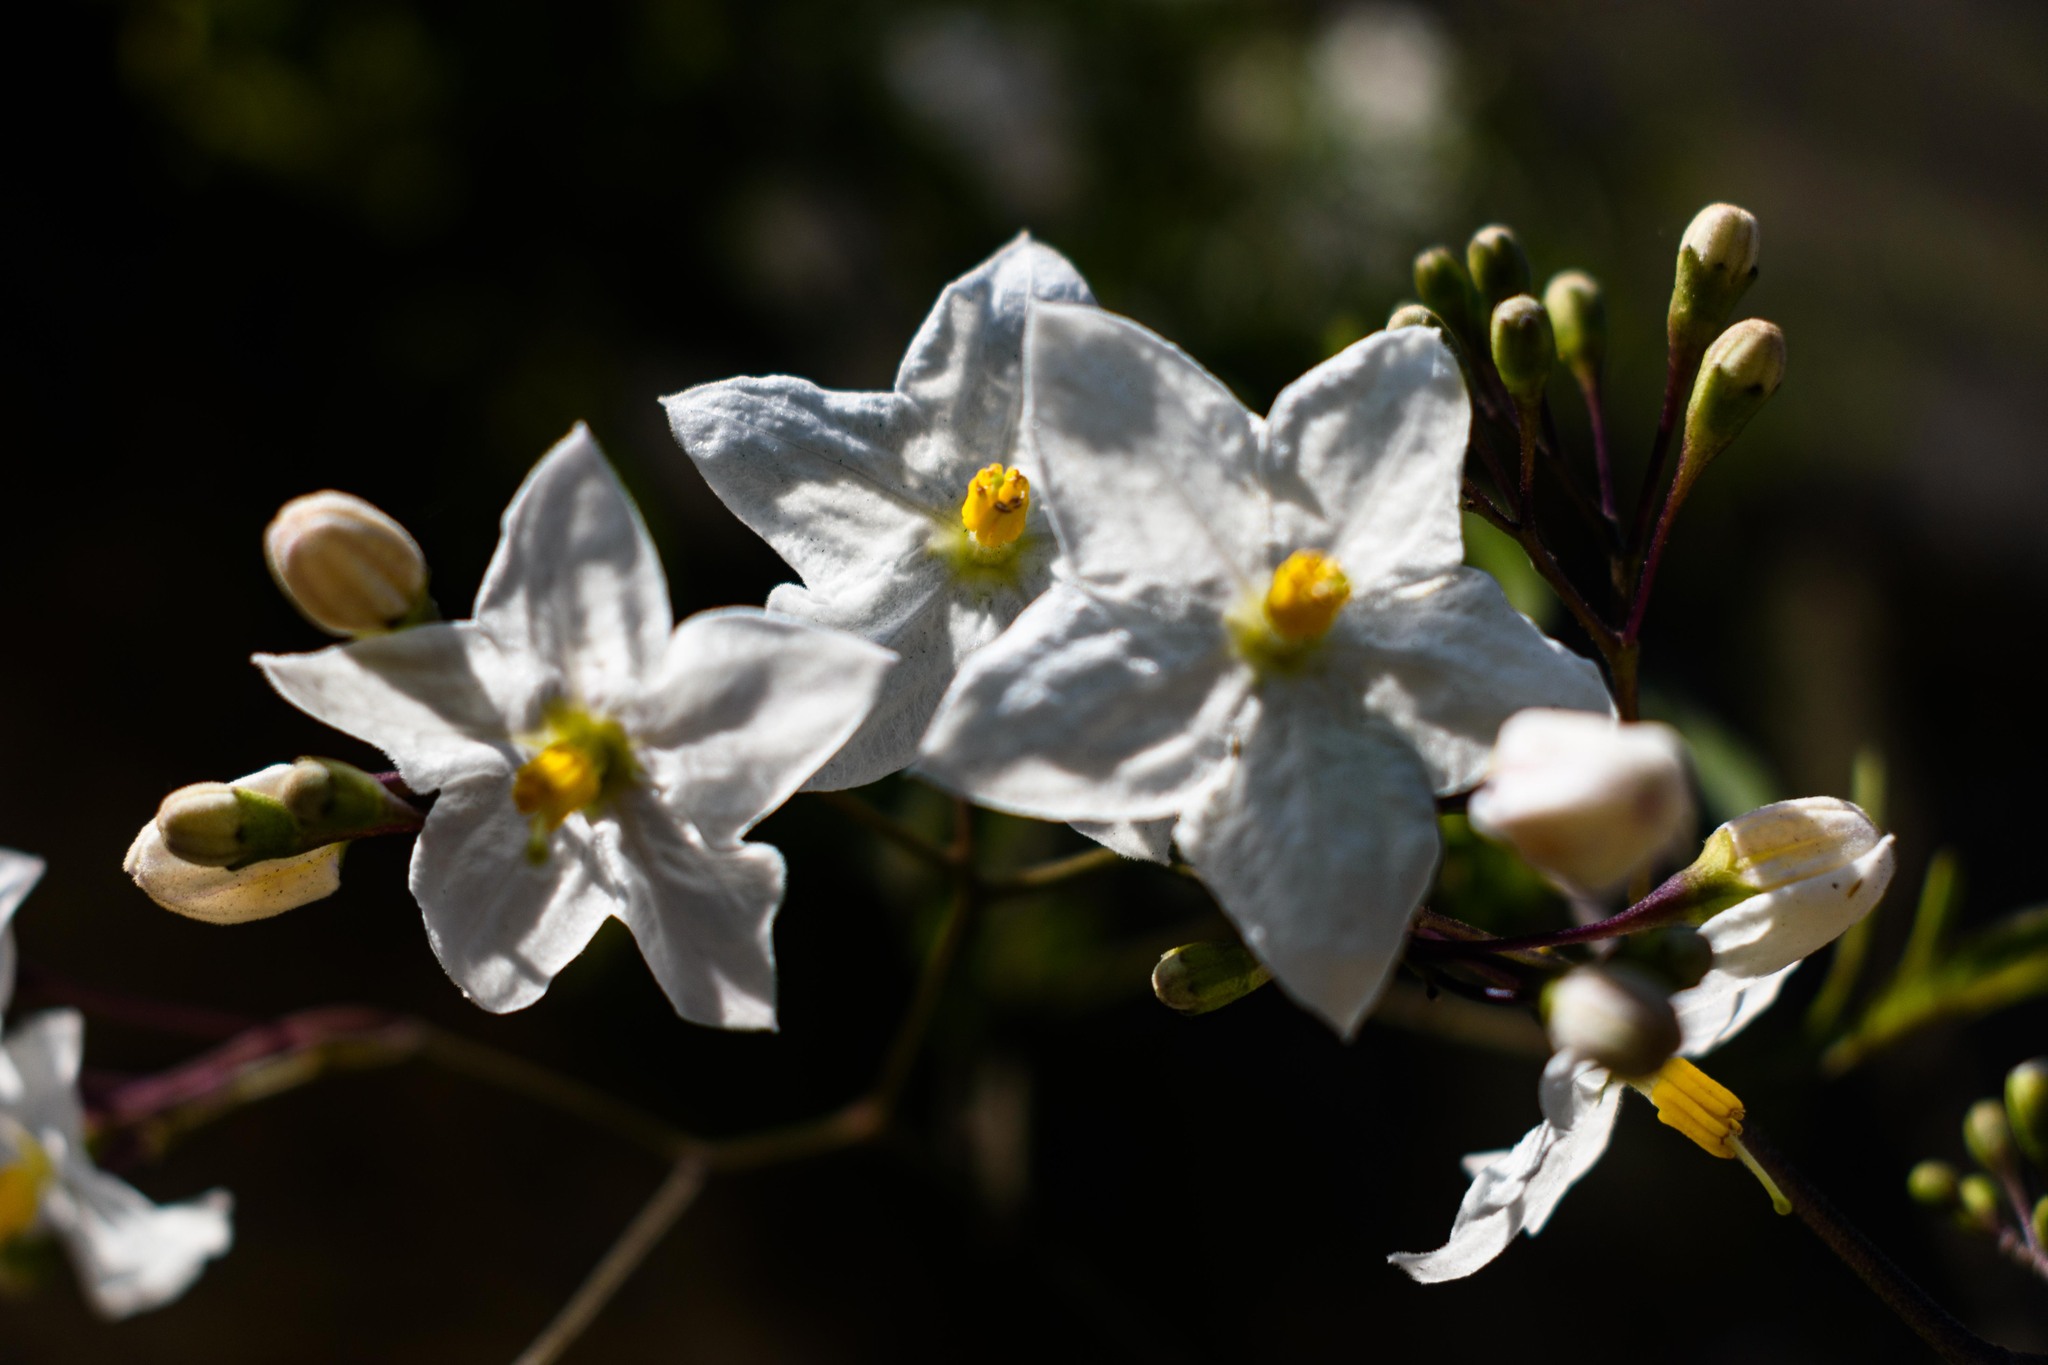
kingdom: Plantae
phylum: Tracheophyta
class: Magnoliopsida
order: Solanales
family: Solanaceae
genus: Solanum
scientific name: Solanum laxum
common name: Nightshade
